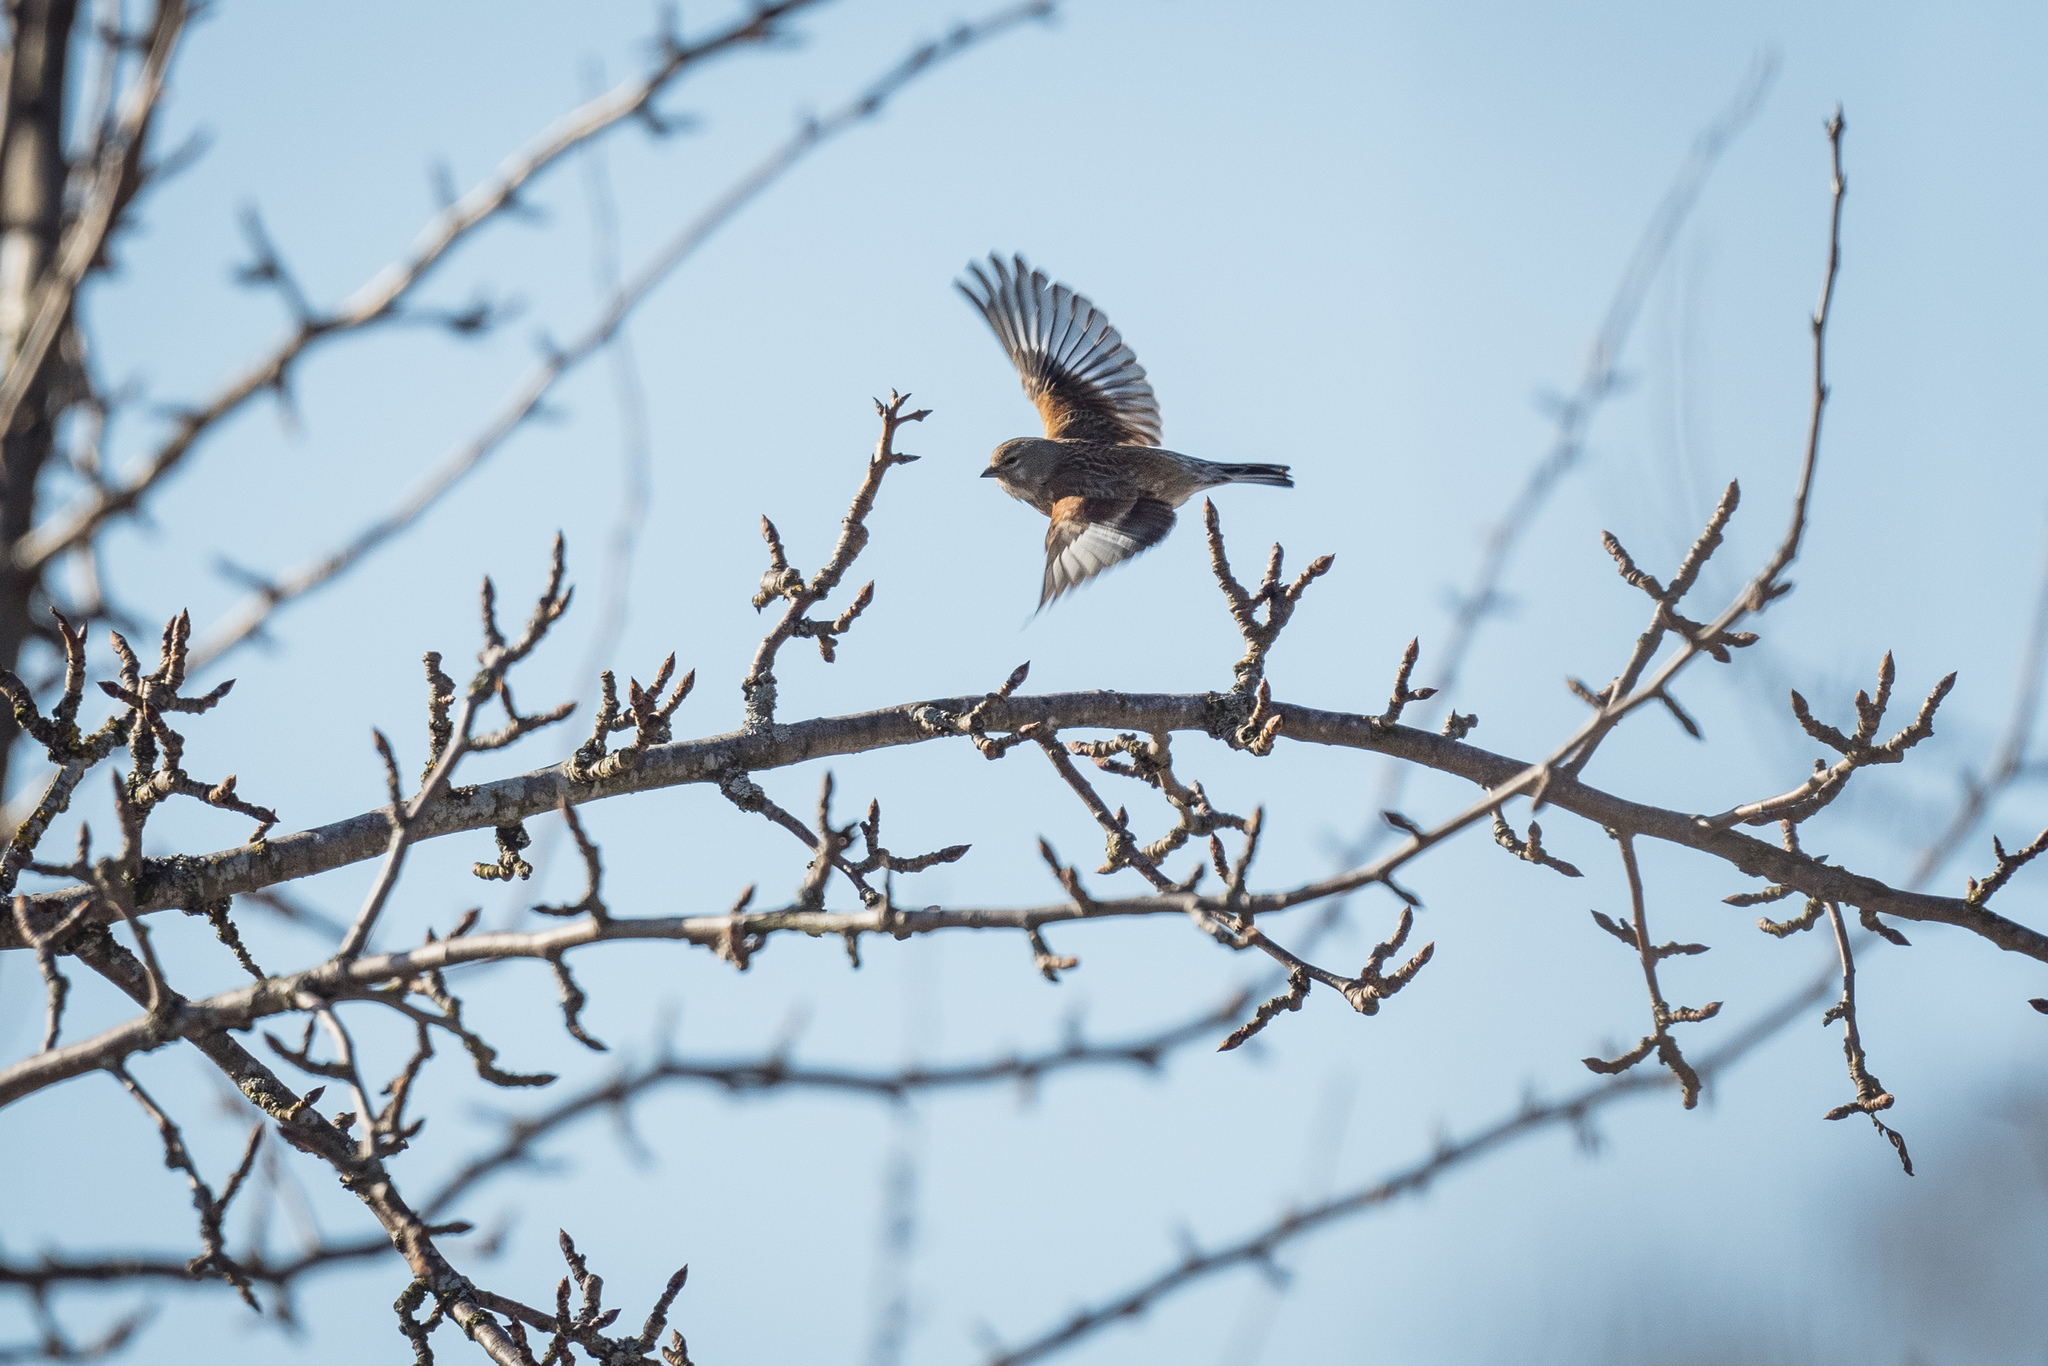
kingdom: Animalia
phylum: Chordata
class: Aves
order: Passeriformes
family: Fringillidae
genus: Linaria
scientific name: Linaria cannabina
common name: Common linnet
